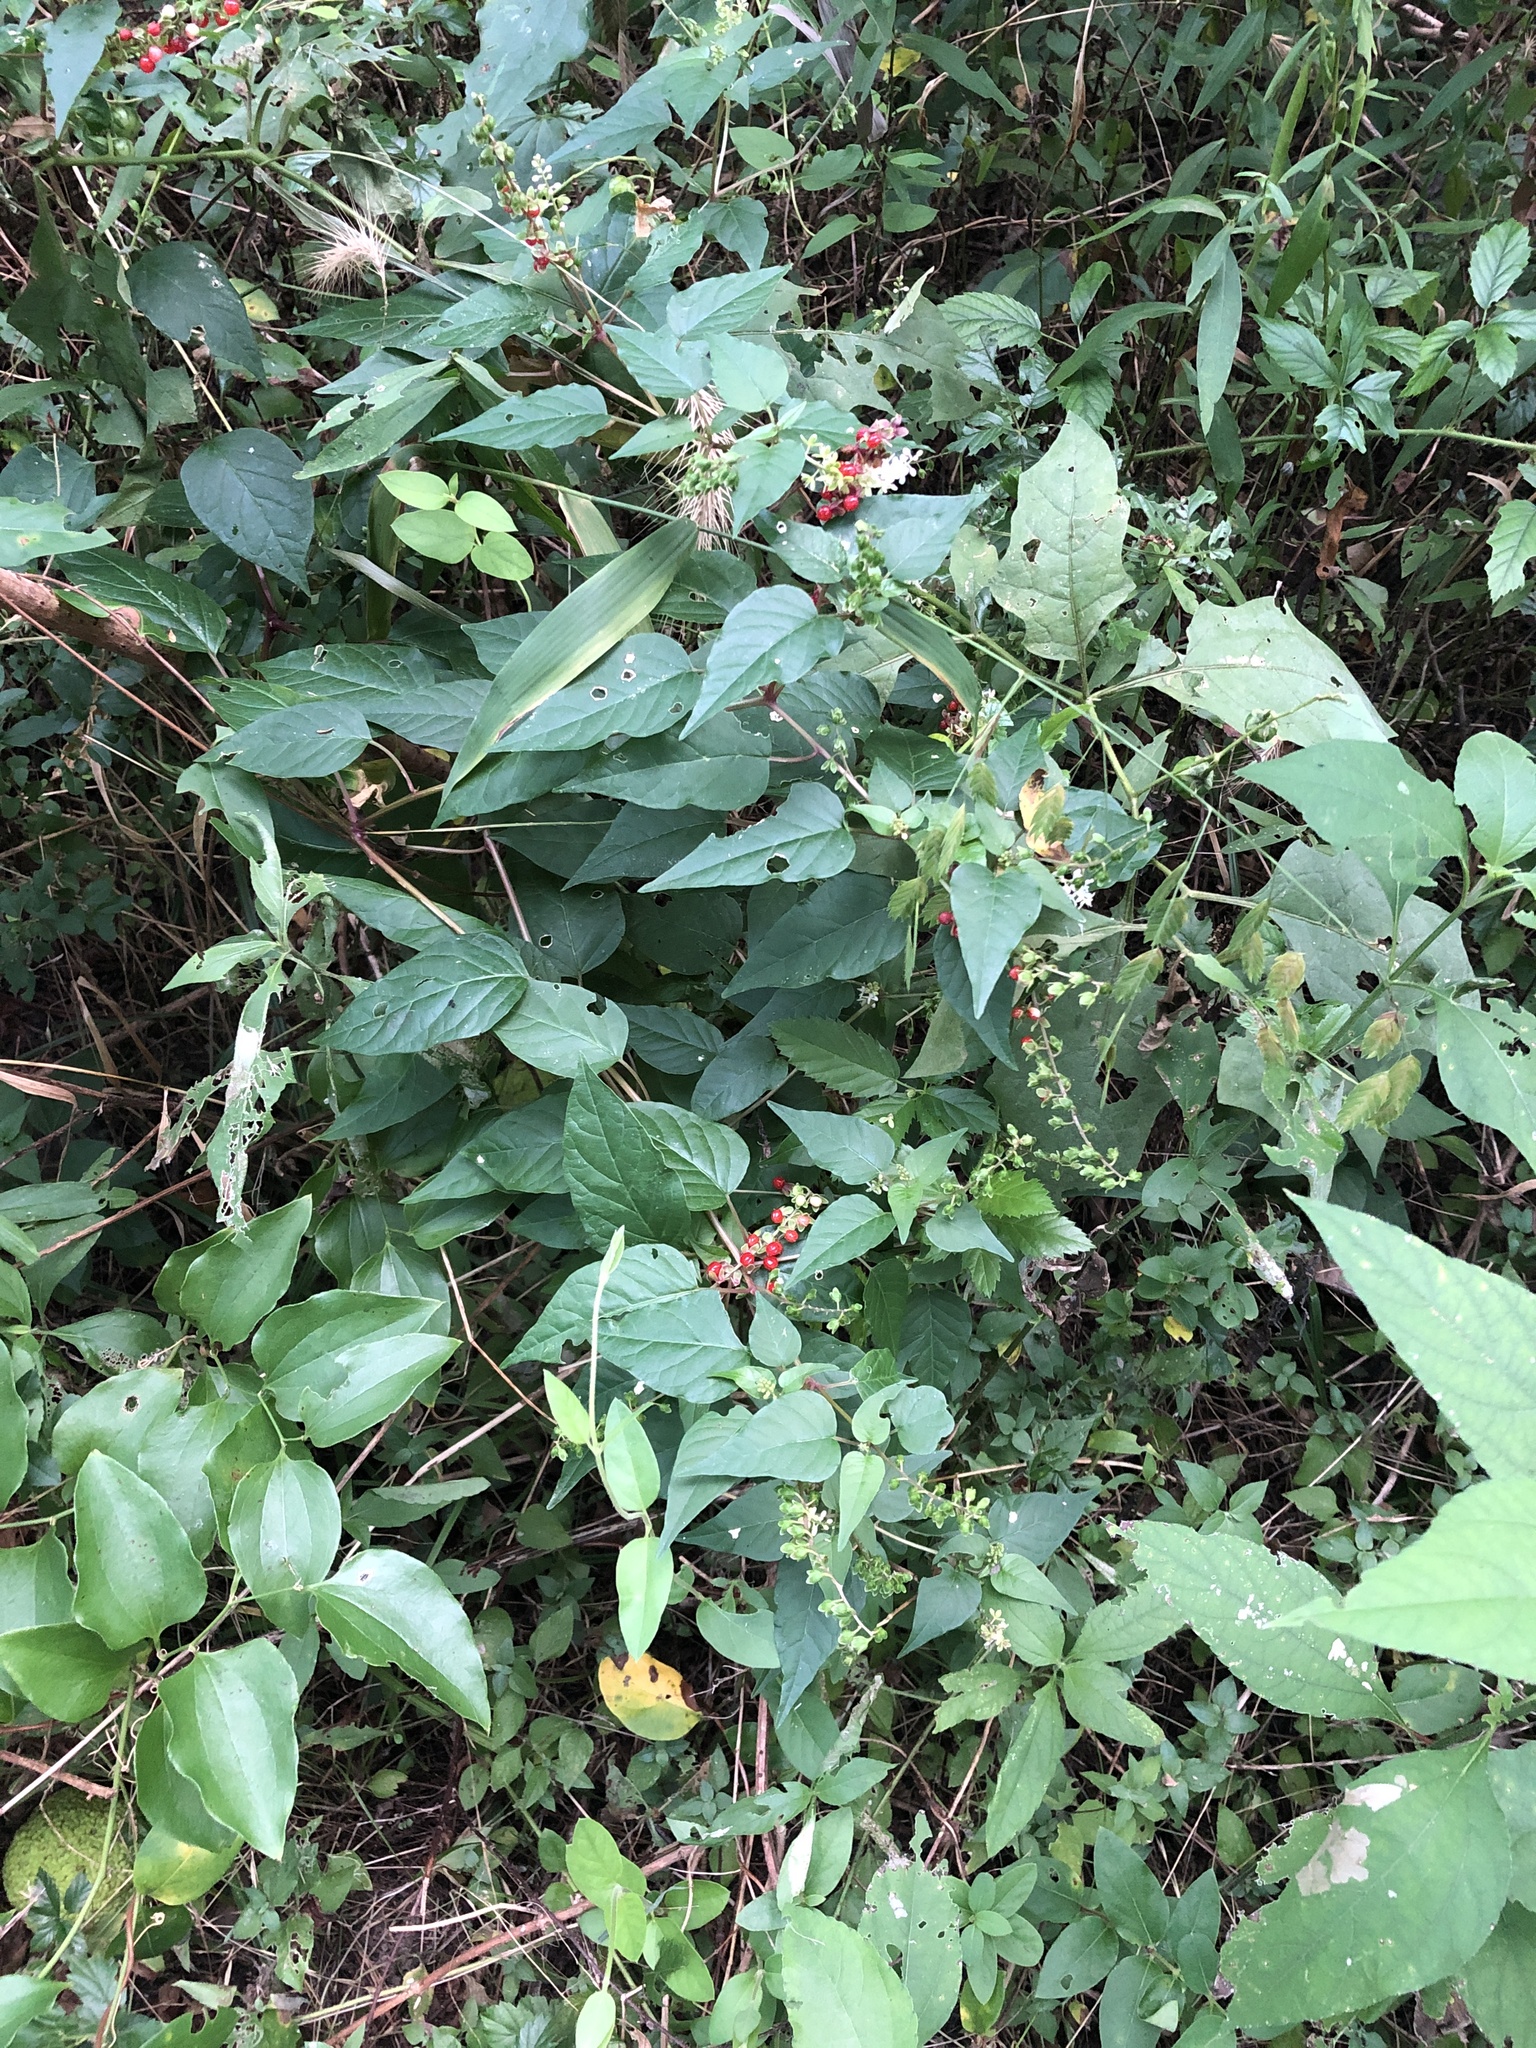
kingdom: Plantae
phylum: Tracheophyta
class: Magnoliopsida
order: Caryophyllales
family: Phytolaccaceae
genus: Rivina
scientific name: Rivina humilis
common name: Rougeplant
